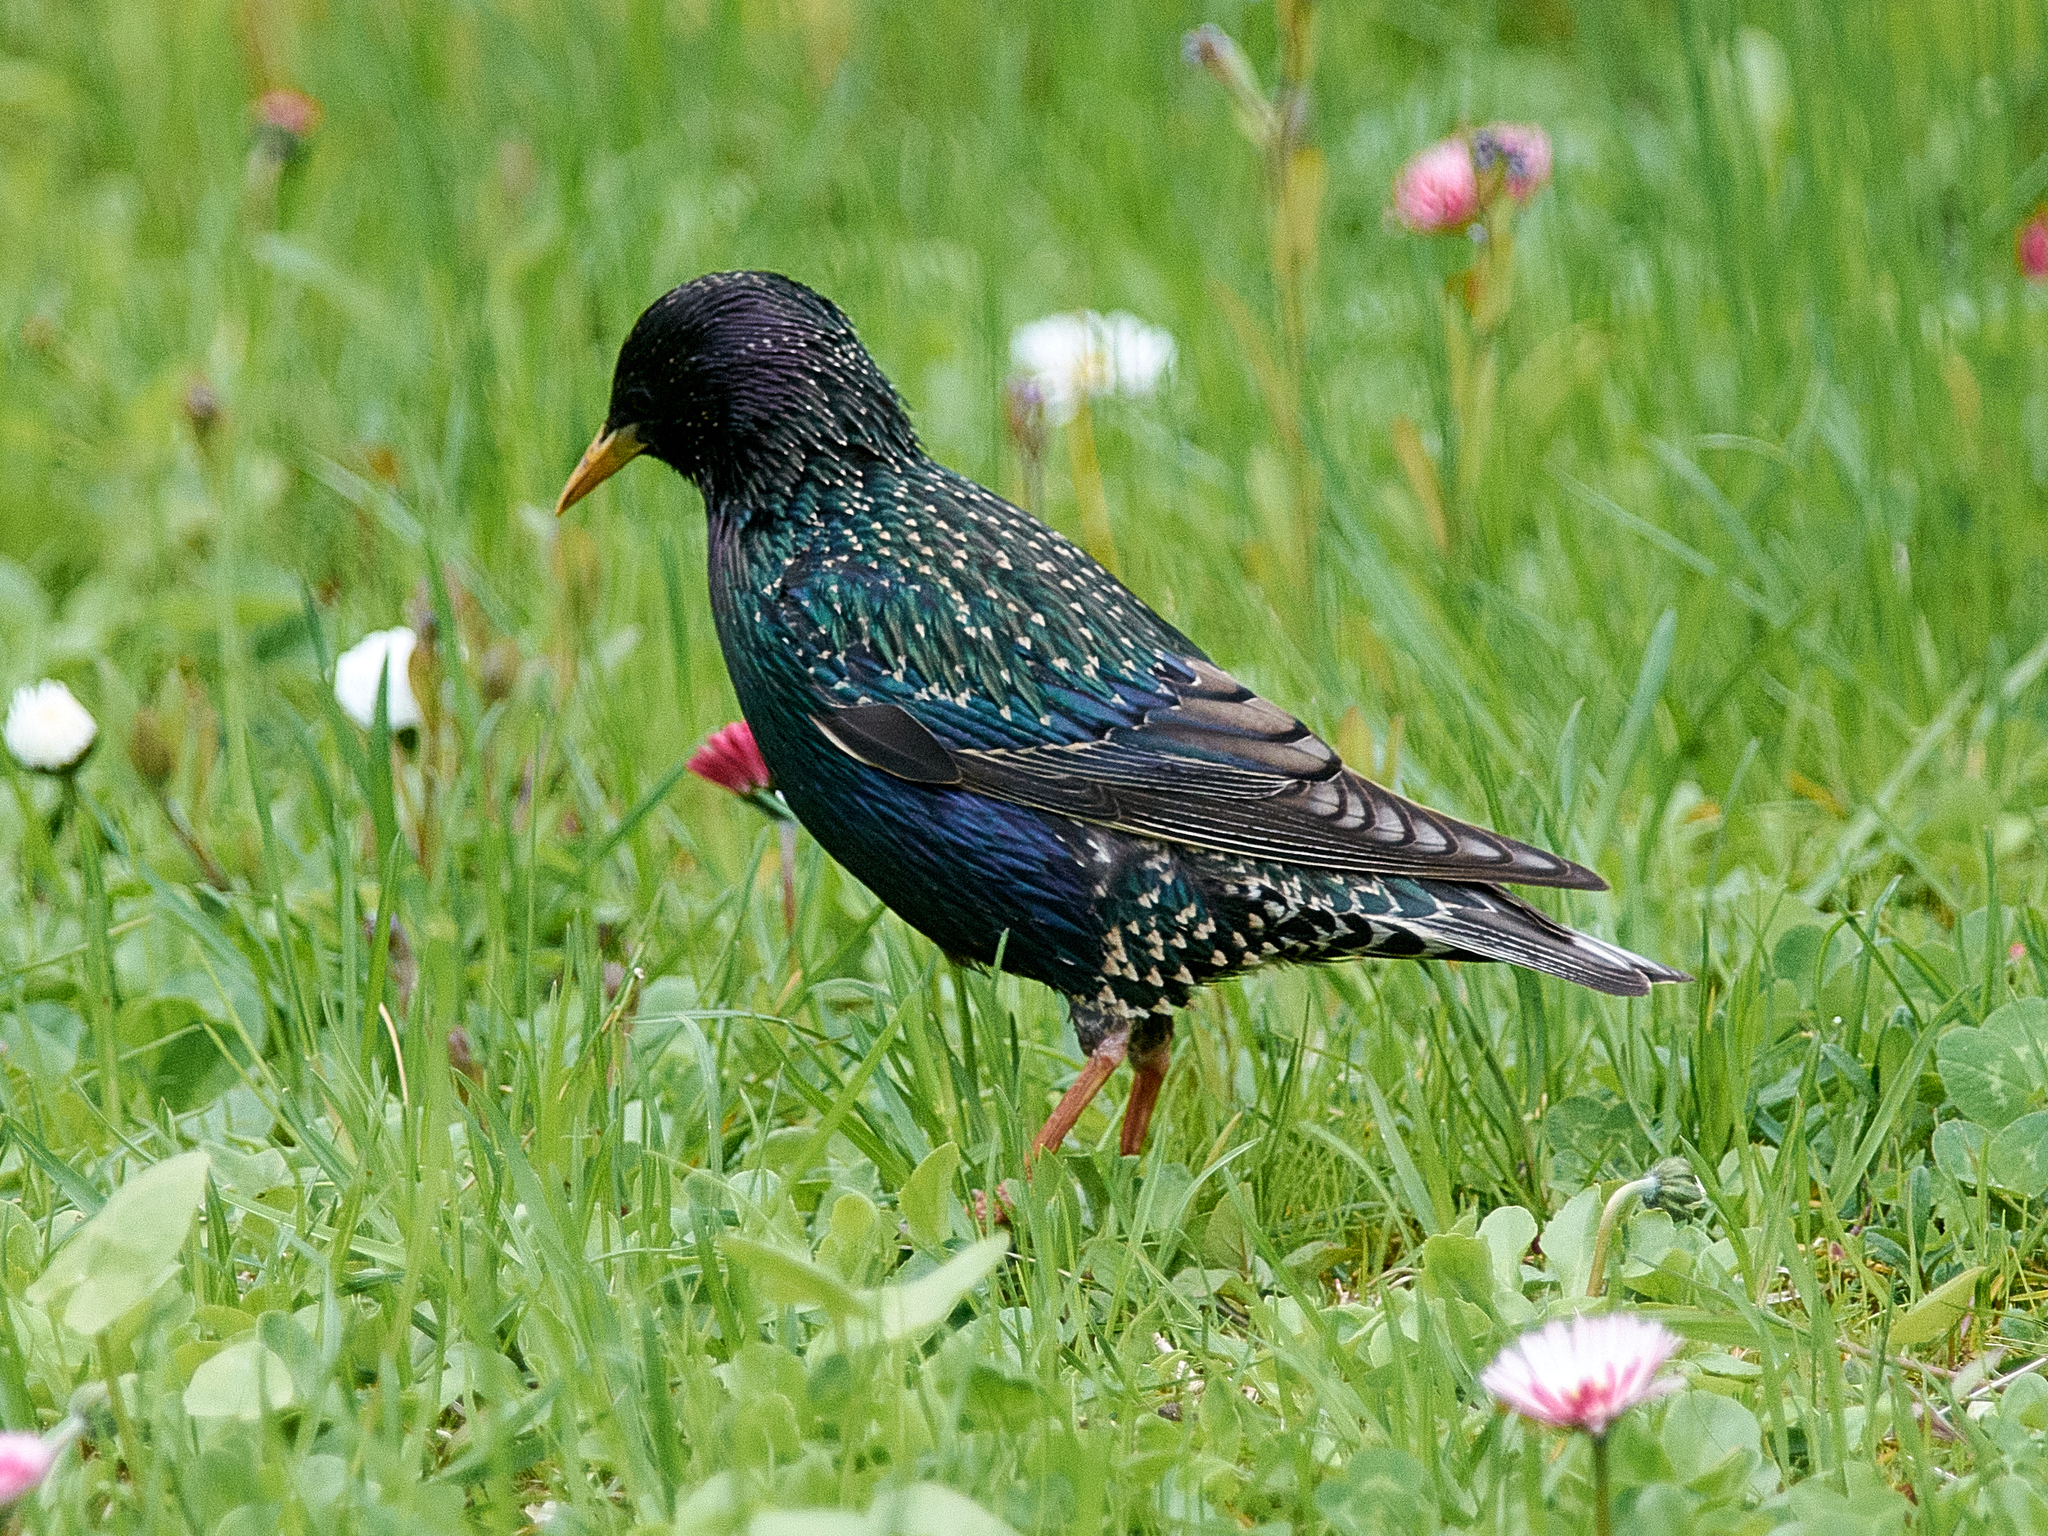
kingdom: Animalia
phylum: Chordata
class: Aves
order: Passeriformes
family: Sturnidae
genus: Sturnus
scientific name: Sturnus vulgaris
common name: Common starling
